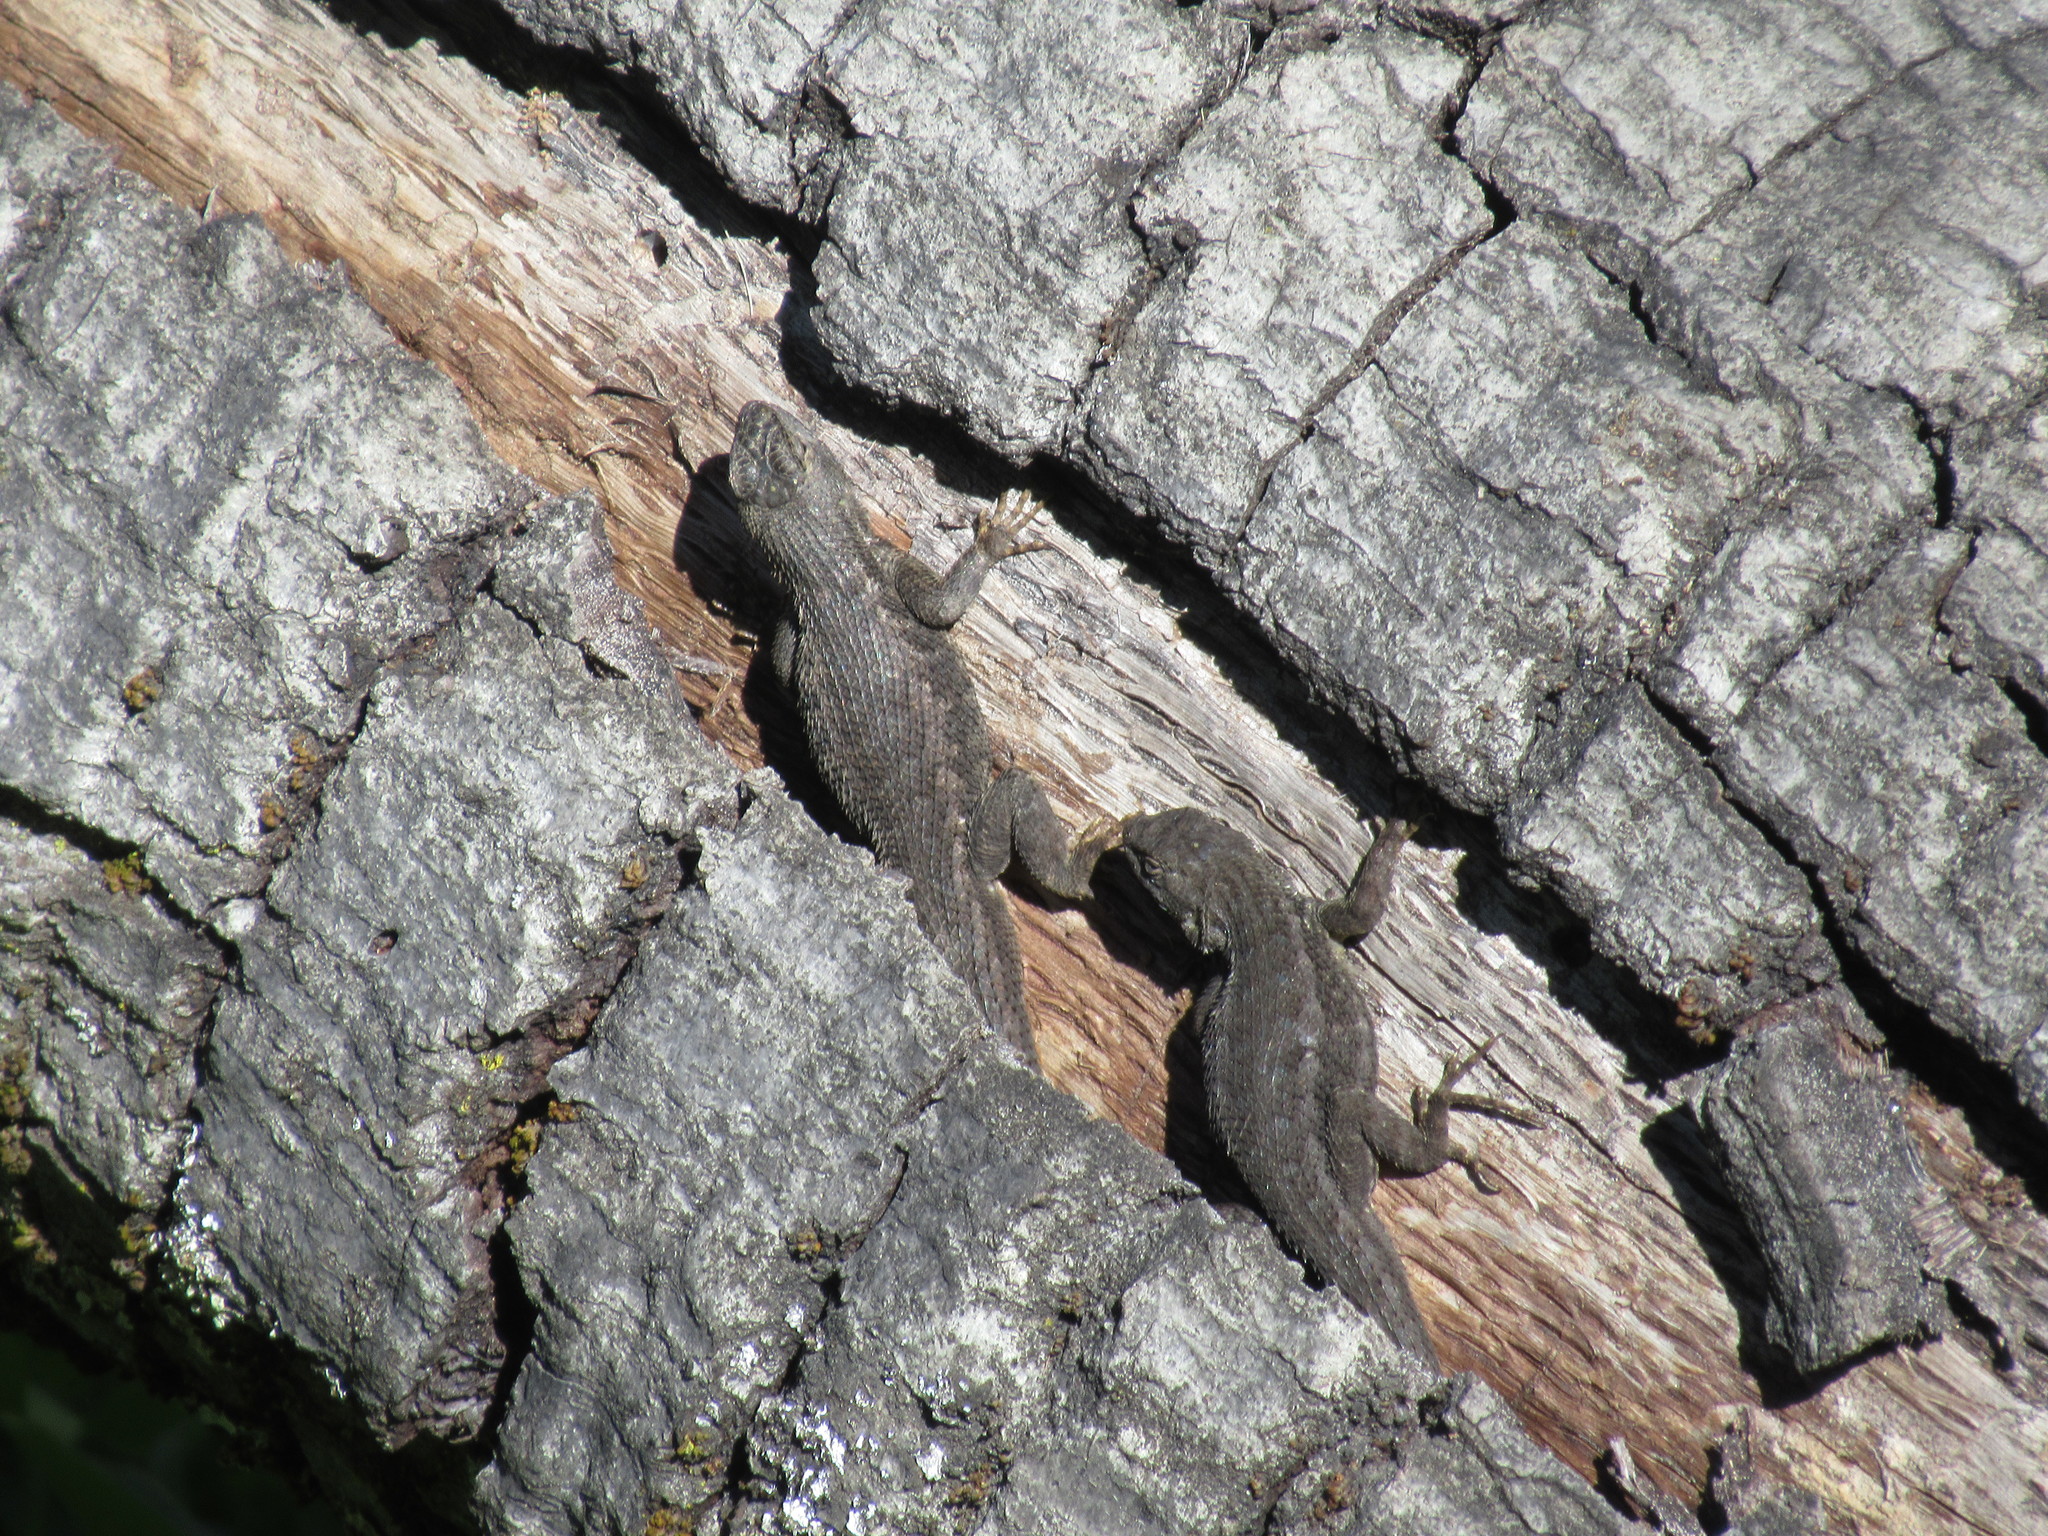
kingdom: Animalia
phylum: Chordata
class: Squamata
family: Phrynosomatidae
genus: Sceloporus
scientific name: Sceloporus occidentalis
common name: Western fence lizard
